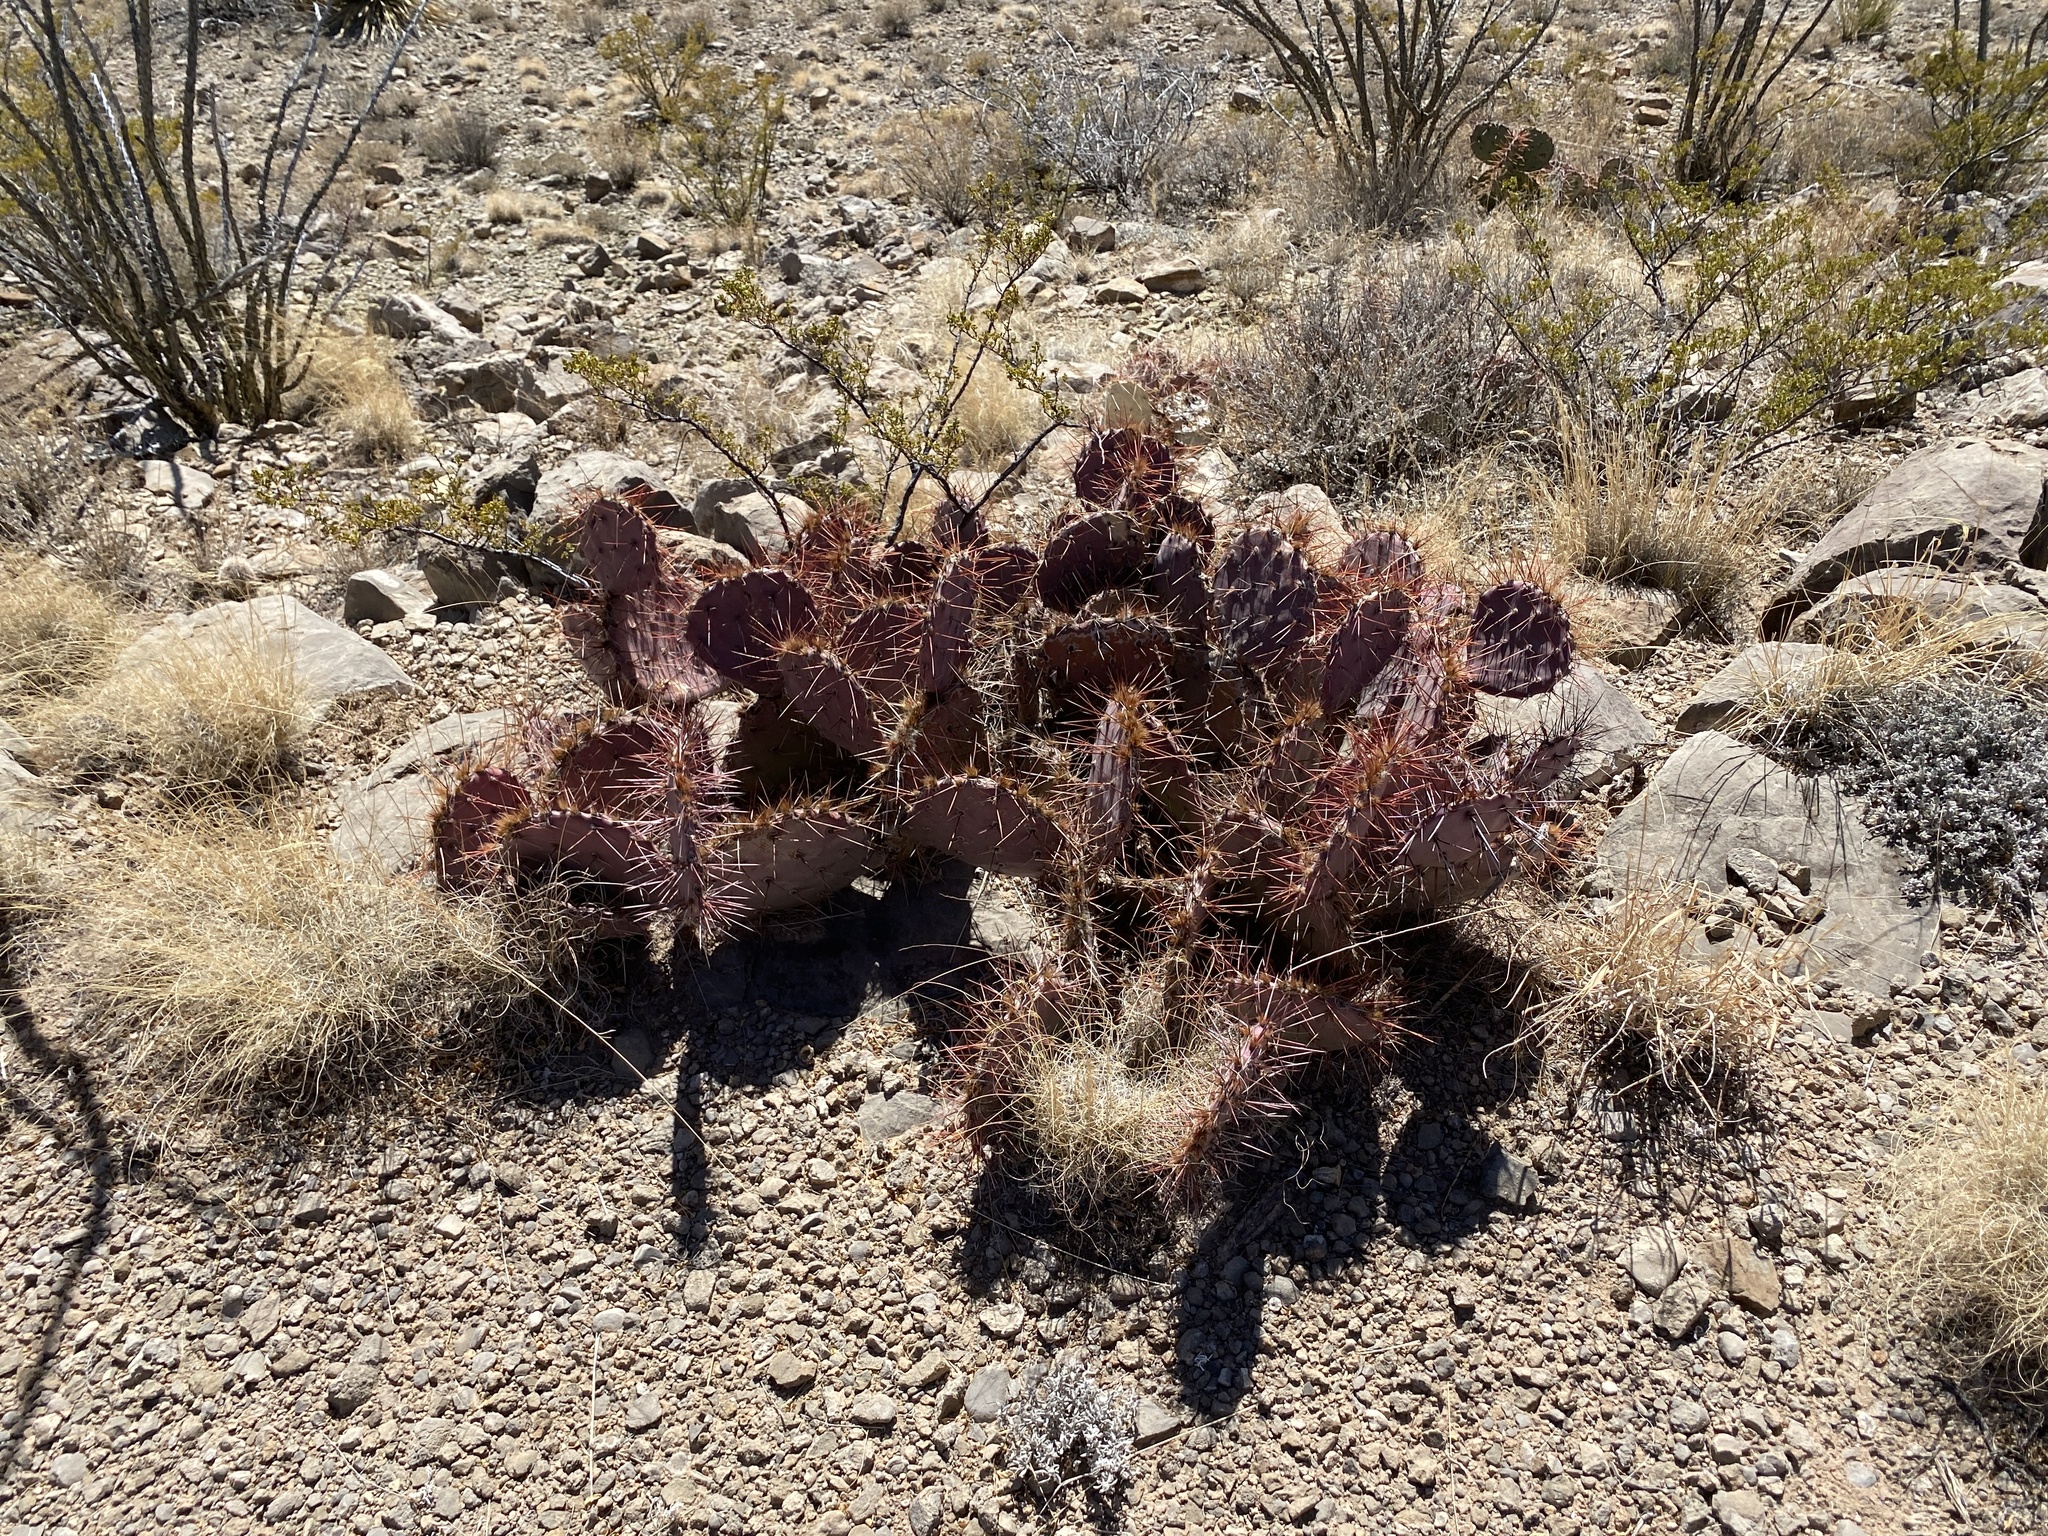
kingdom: Plantae
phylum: Tracheophyta
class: Magnoliopsida
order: Caryophyllales
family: Cactaceae
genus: Opuntia
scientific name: Opuntia macrocentra
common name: Purple prickly-pear
